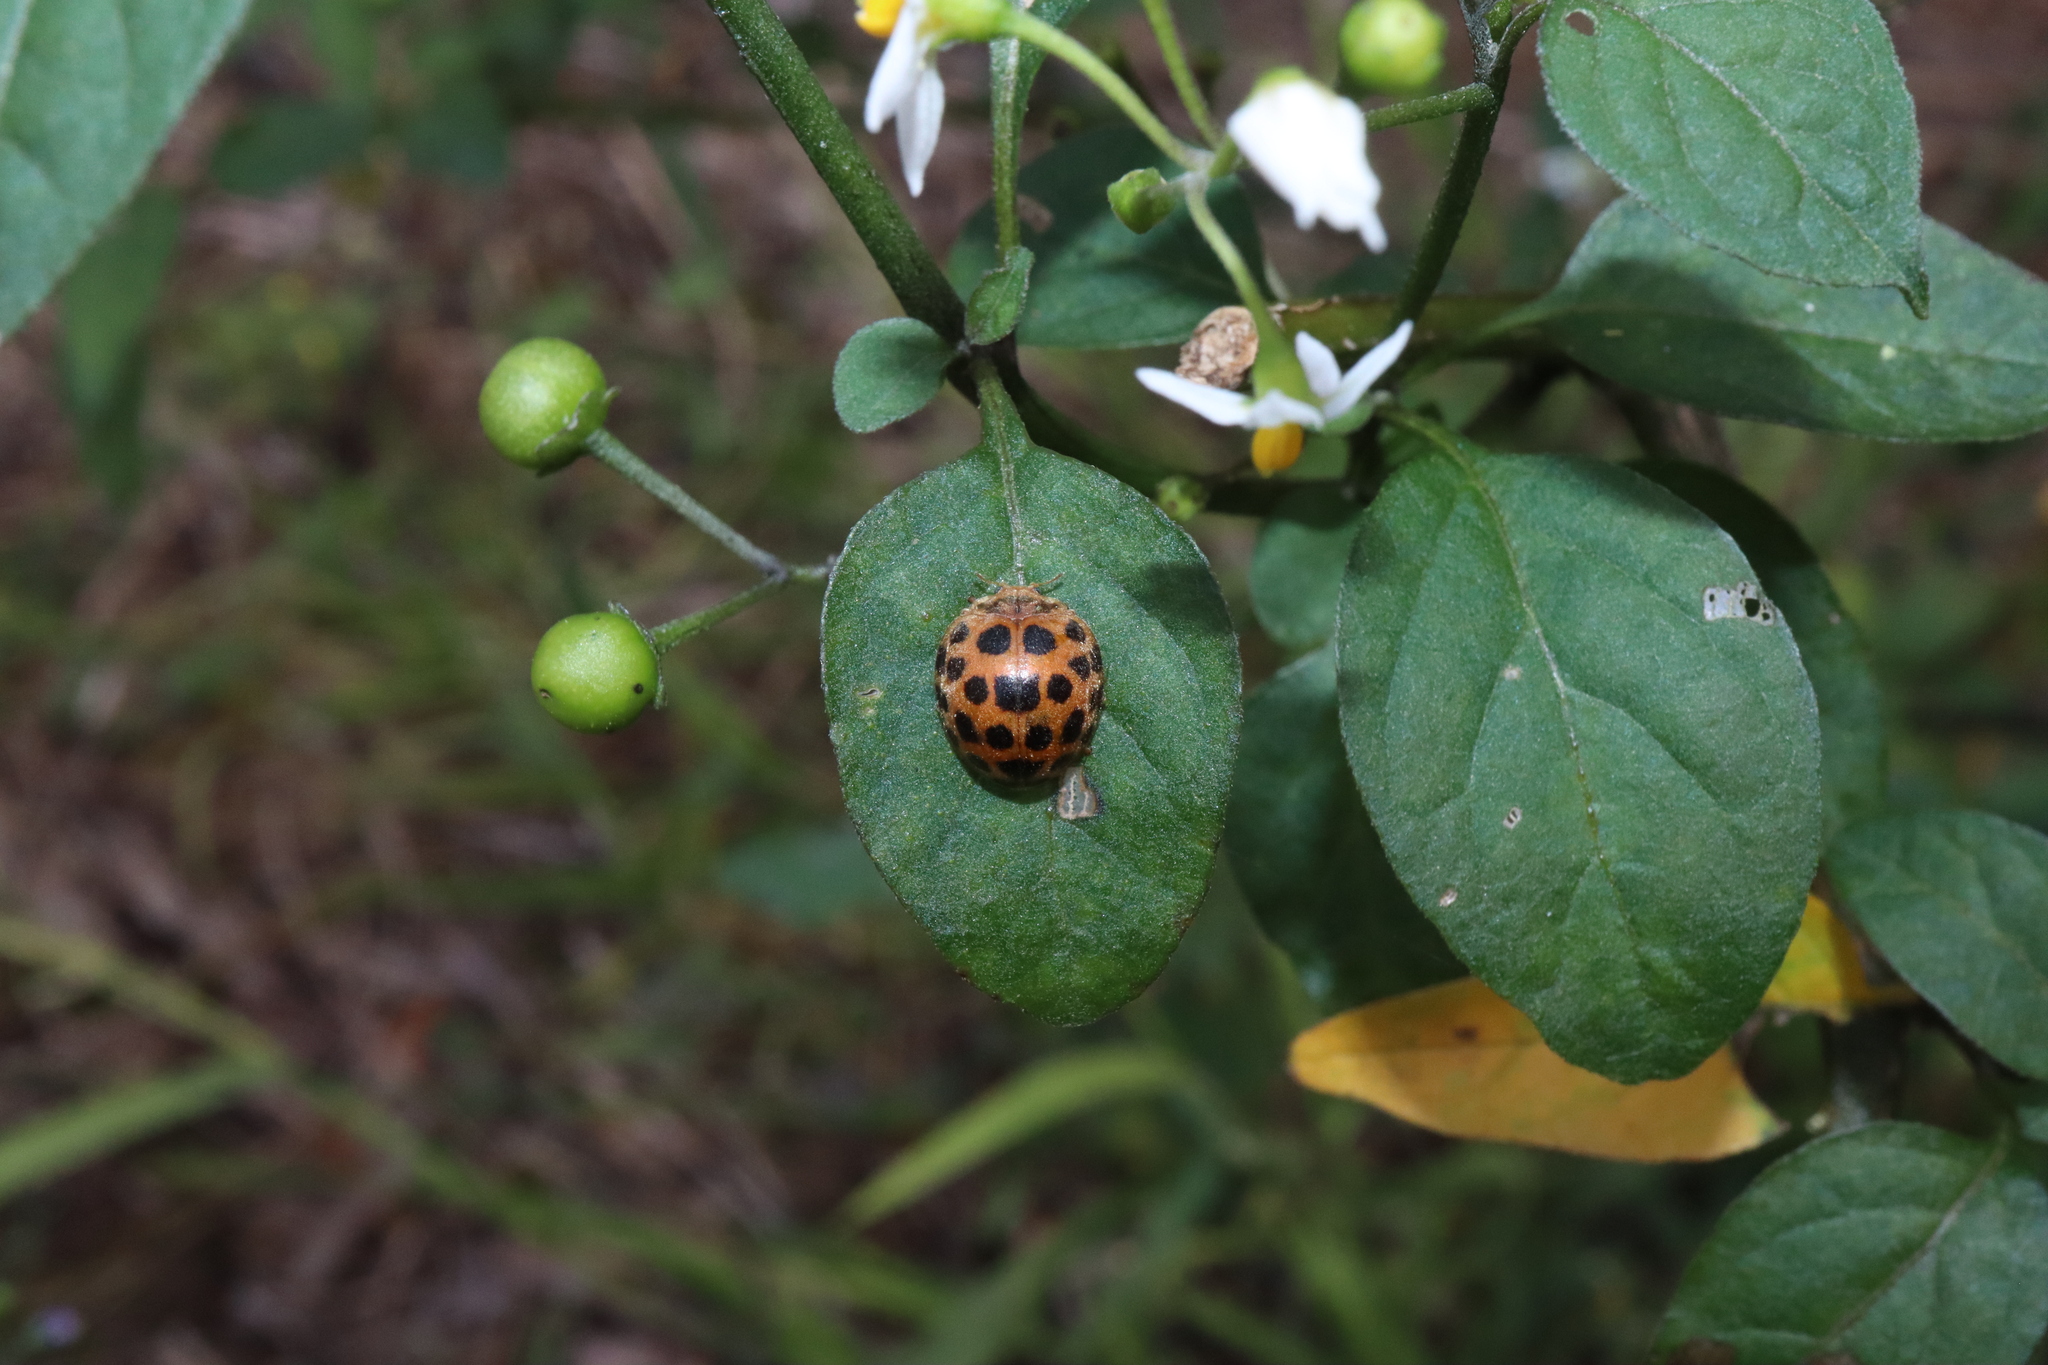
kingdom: Animalia
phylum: Arthropoda
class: Insecta
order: Coleoptera
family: Coccinellidae
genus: Henosepilachna
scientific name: Henosepilachna vigintioctopunctata
